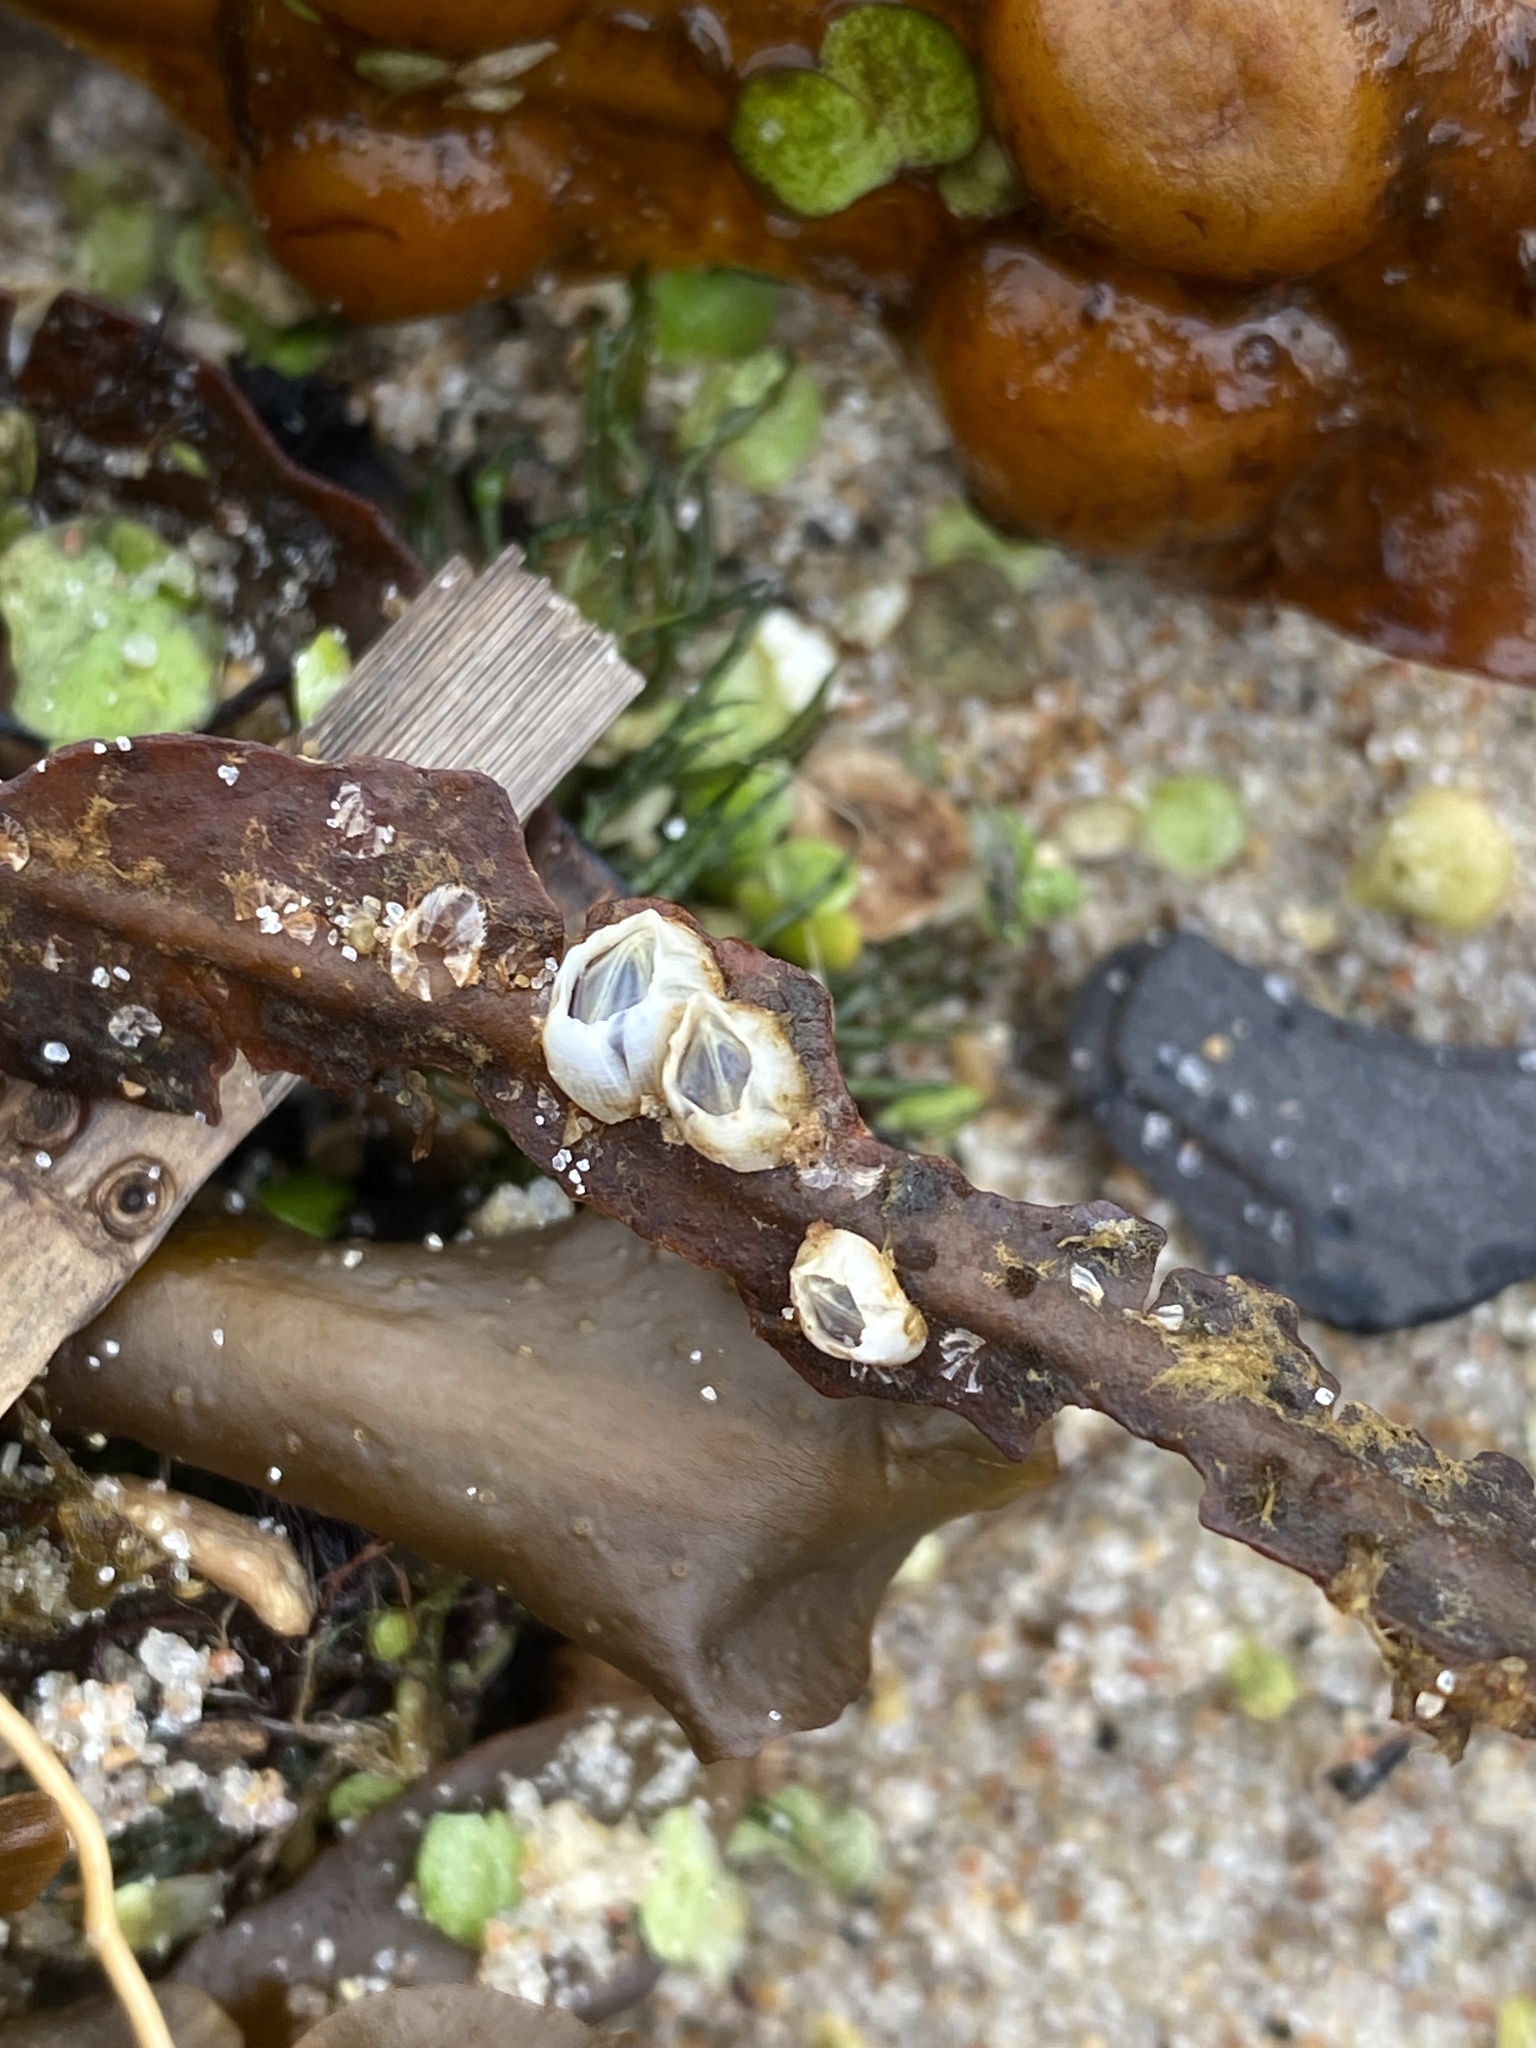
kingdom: Animalia
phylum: Arthropoda
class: Maxillopoda
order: Sessilia
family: Balanidae
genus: Amphibalanus
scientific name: Amphibalanus improvisus
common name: Bay barnacle
